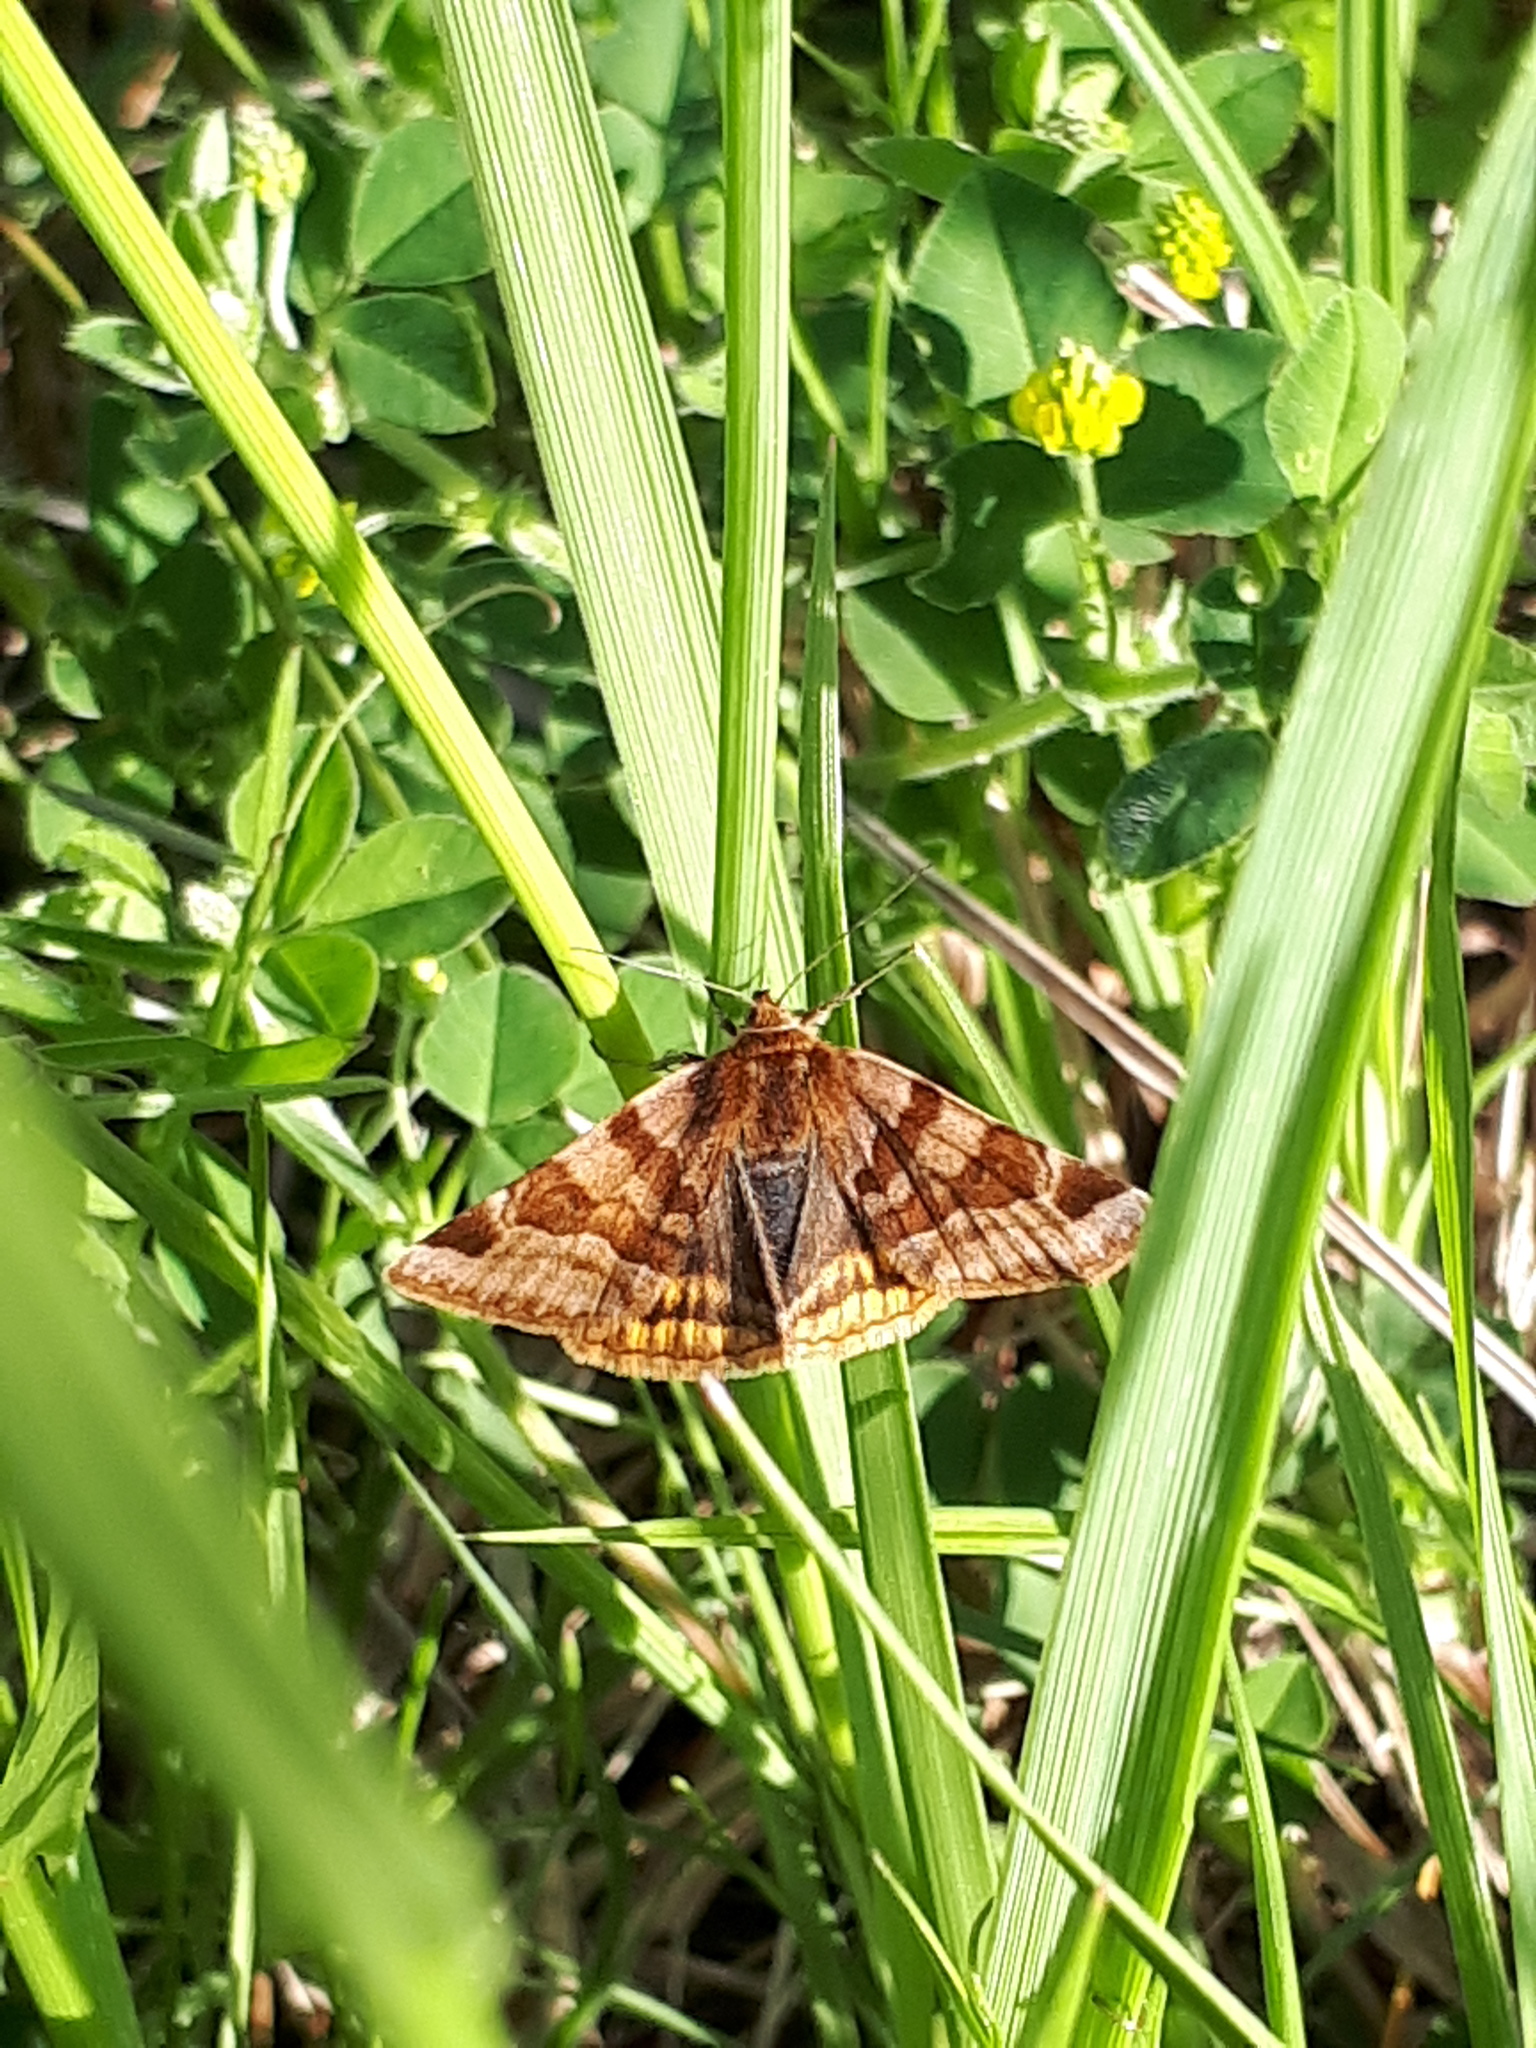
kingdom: Animalia
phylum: Arthropoda
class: Insecta
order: Lepidoptera
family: Erebidae
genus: Euclidia
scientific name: Euclidia glyphica
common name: Burnet companion
